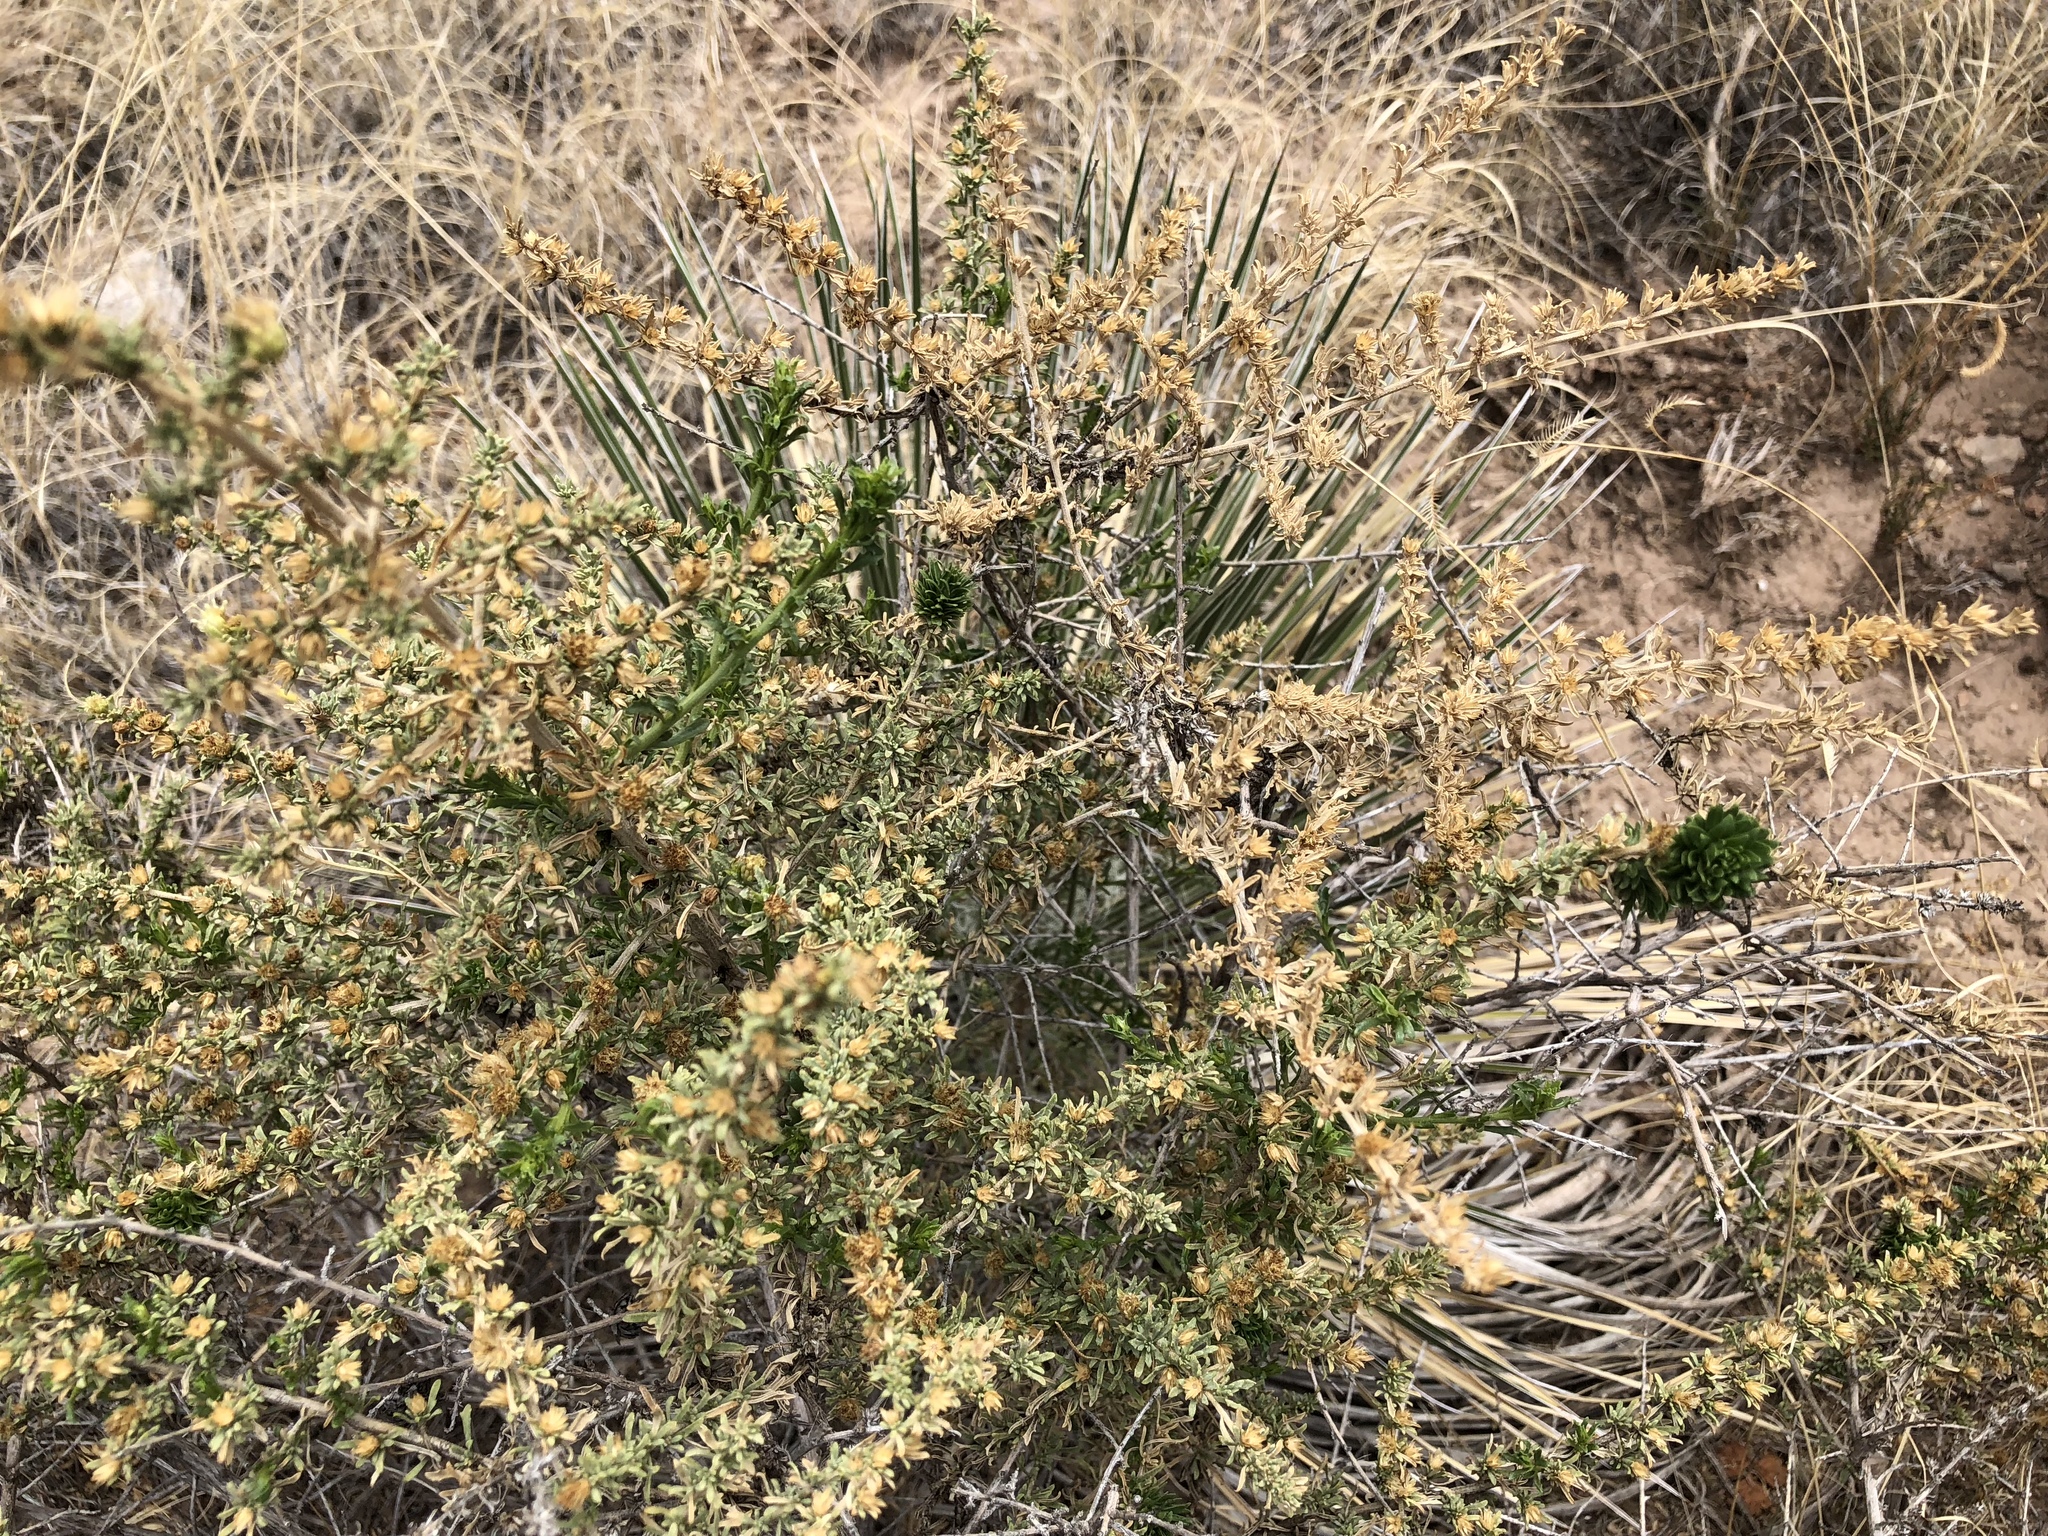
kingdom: Plantae
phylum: Tracheophyta
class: Magnoliopsida
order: Asterales
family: Asteraceae
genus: Baccharis
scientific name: Baccharis pteronioides
